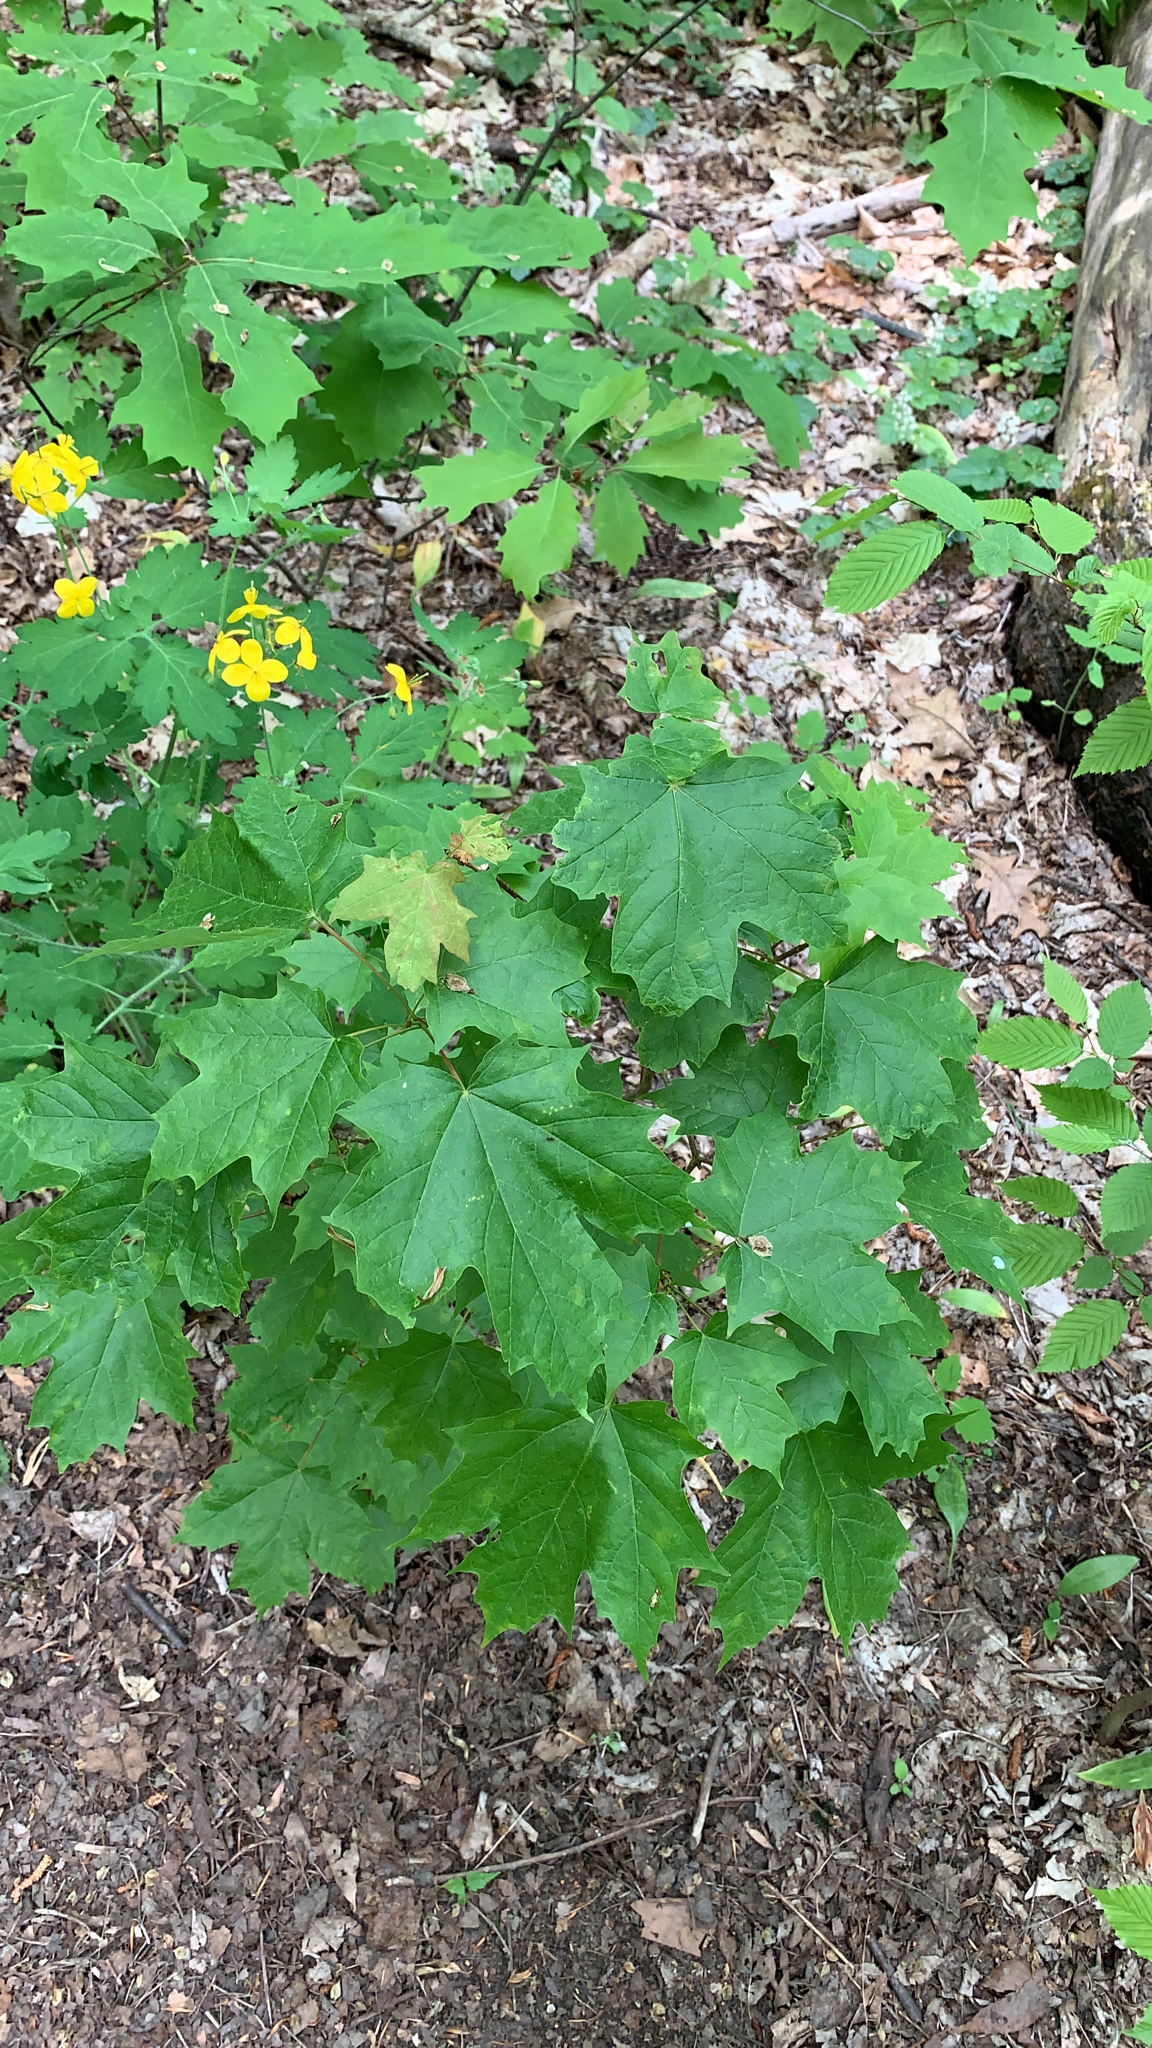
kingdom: Plantae
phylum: Tracheophyta
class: Magnoliopsida
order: Sapindales
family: Sapindaceae
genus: Acer
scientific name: Acer saccharum
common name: Sugar maple
